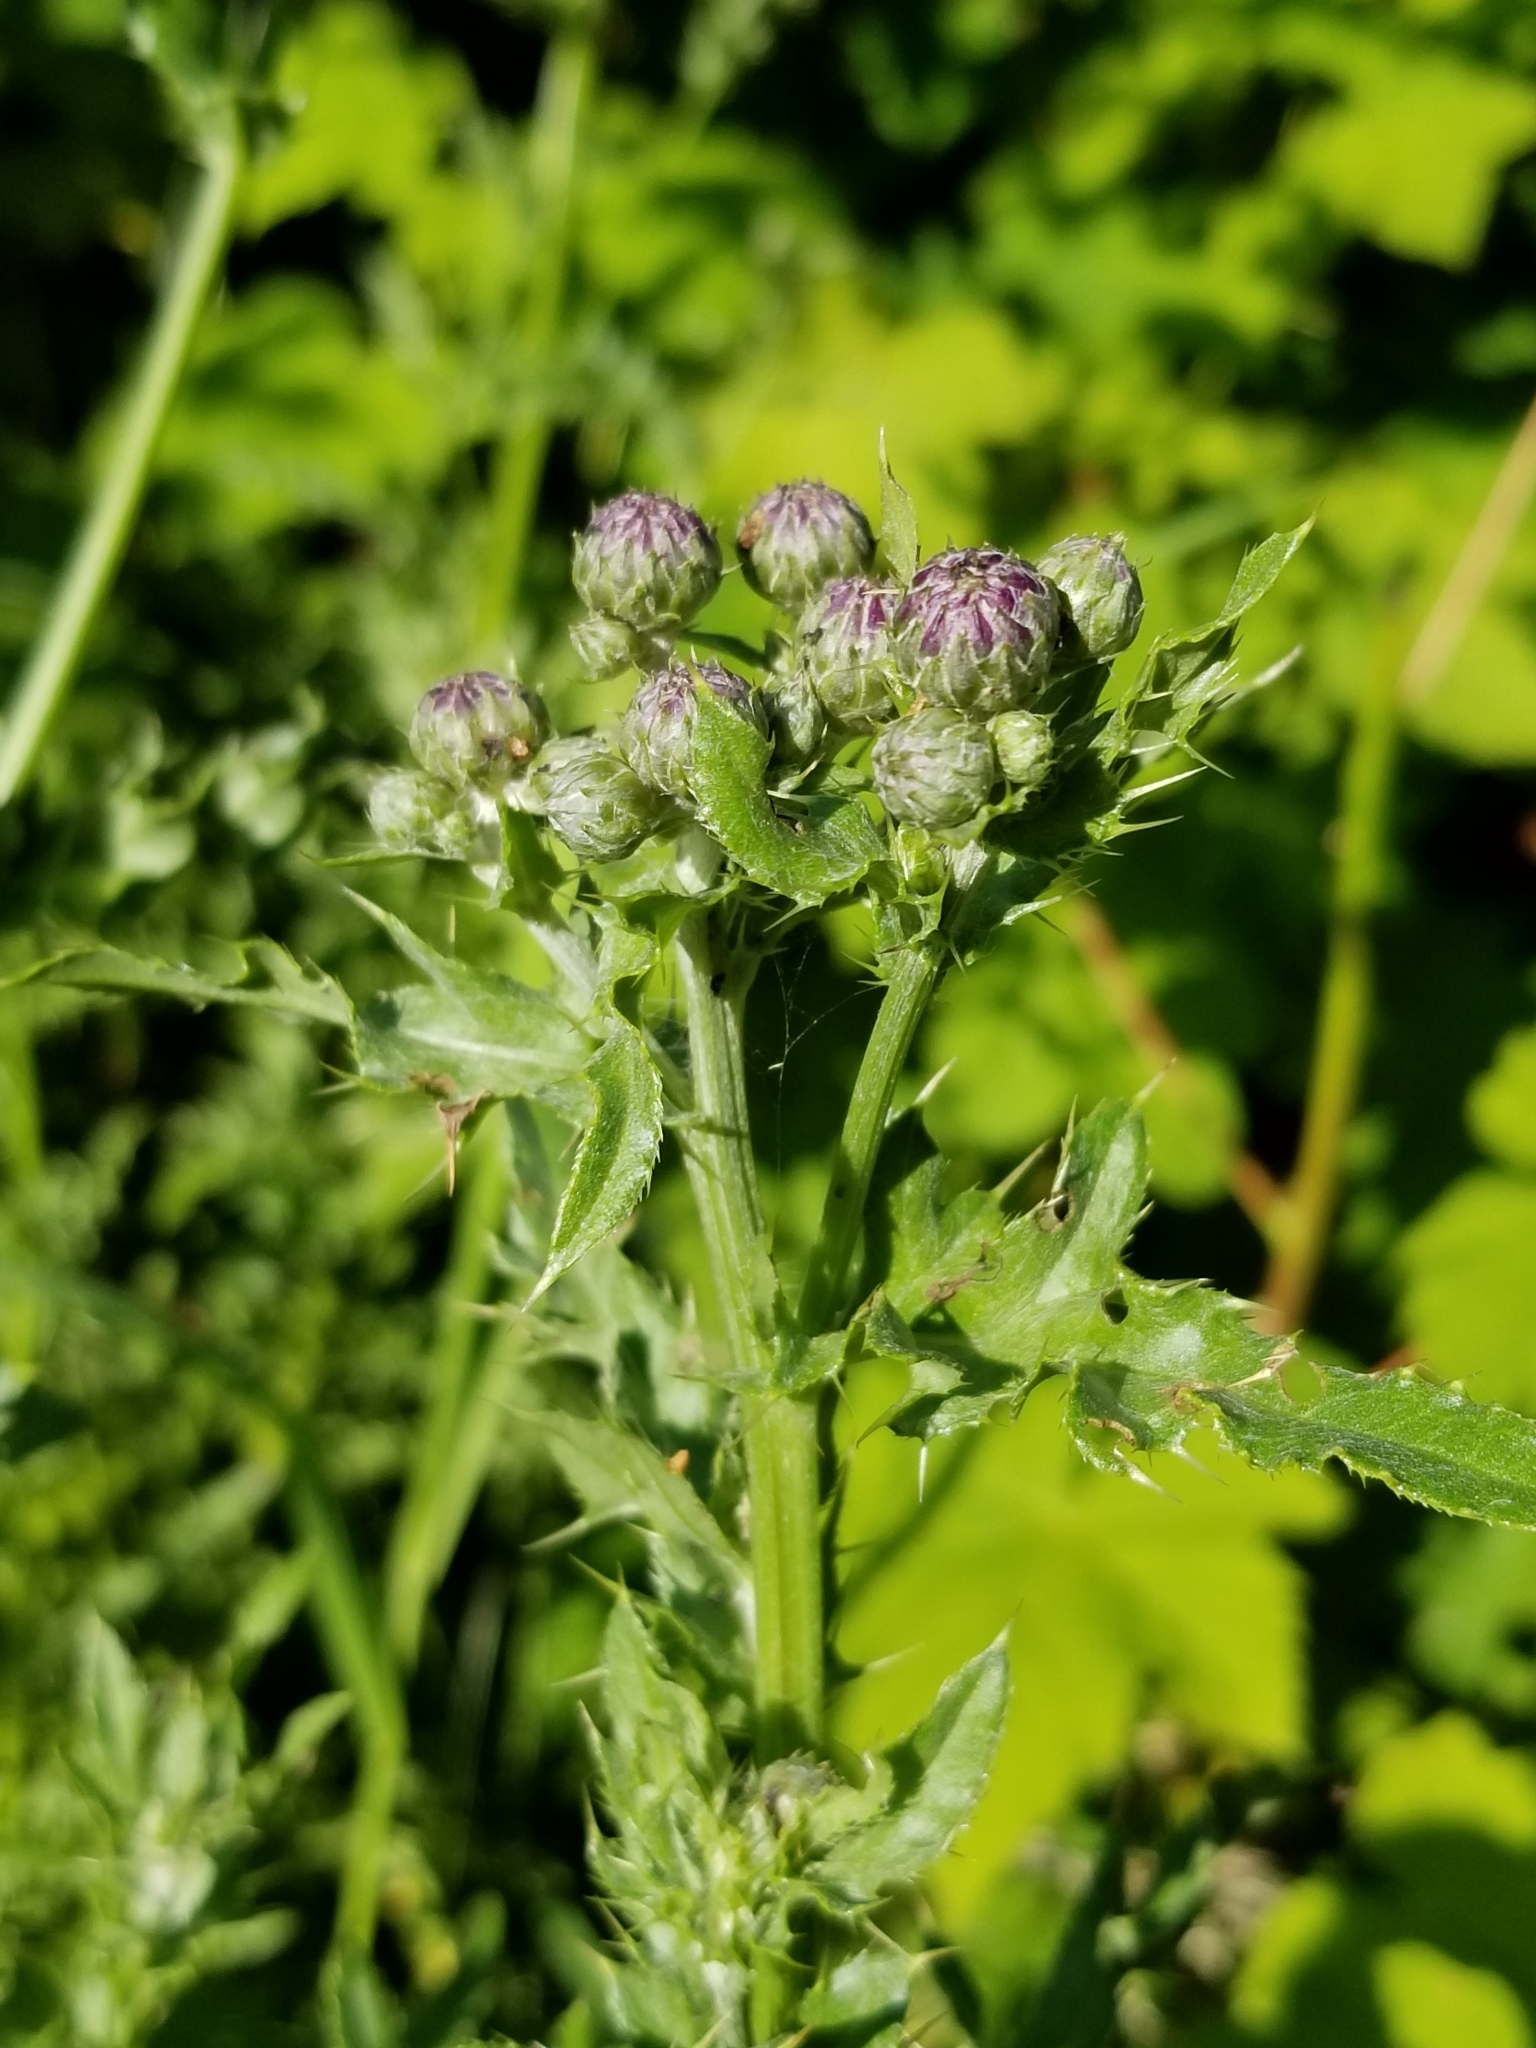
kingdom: Plantae
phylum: Tracheophyta
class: Magnoliopsida
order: Asterales
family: Asteraceae
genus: Cirsium
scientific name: Cirsium arvense
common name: Creeping thistle
